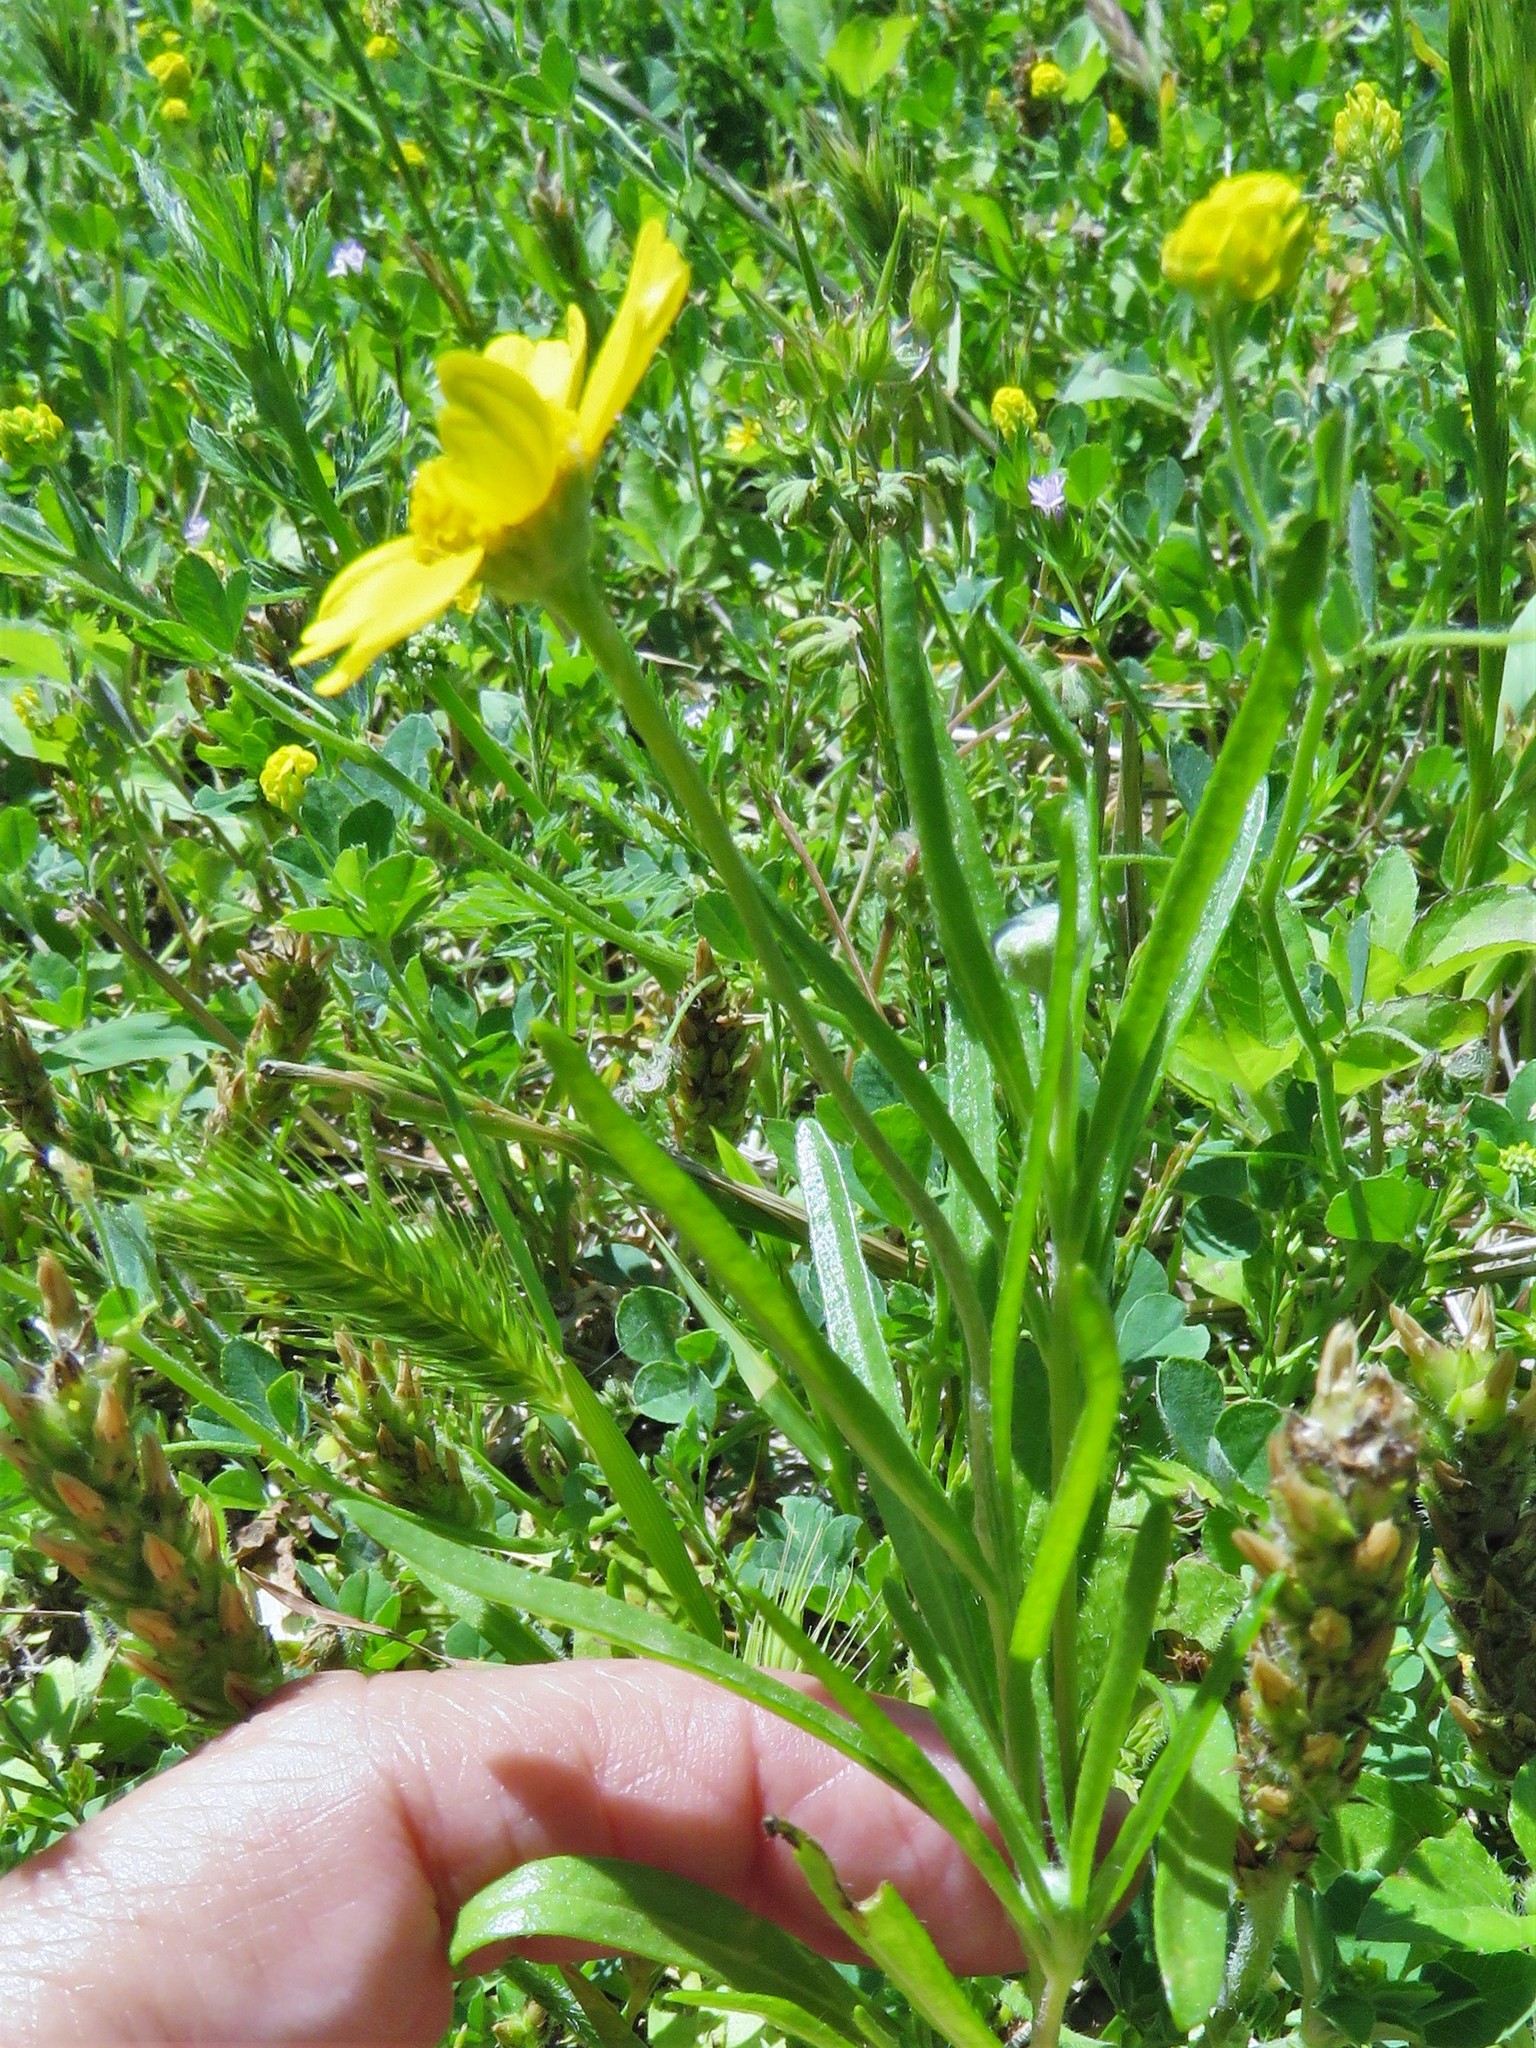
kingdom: Plantae
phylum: Tracheophyta
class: Magnoliopsida
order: Asterales
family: Asteraceae
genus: Tetraneuris
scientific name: Tetraneuris linearifolia
